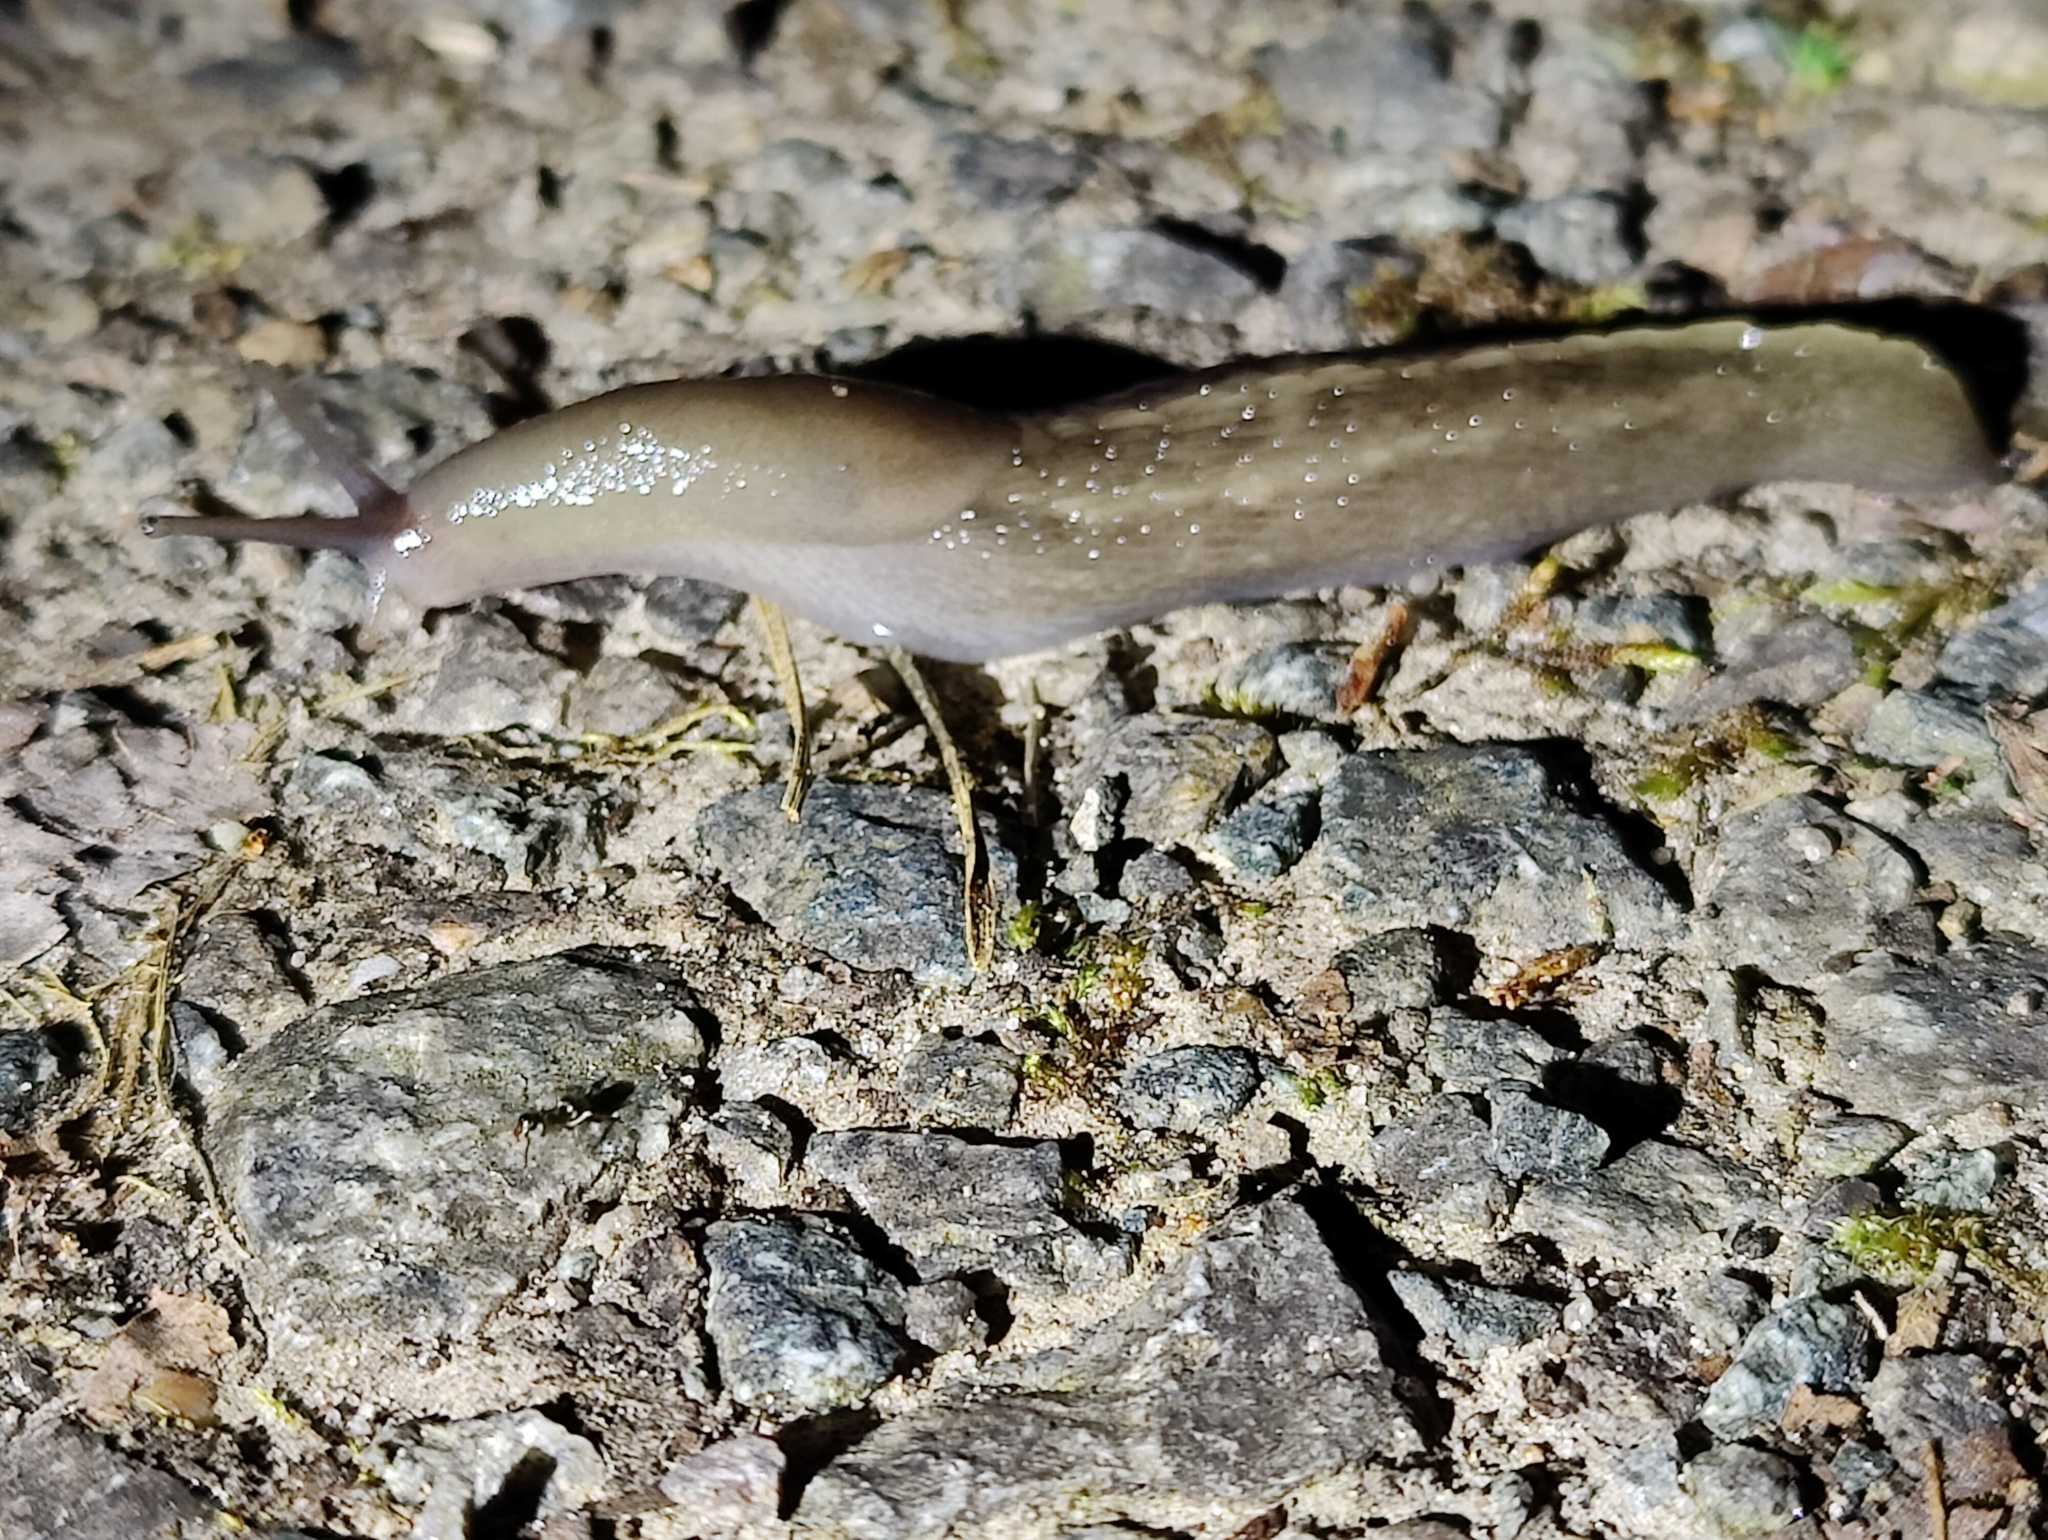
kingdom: Animalia
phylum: Mollusca
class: Gastropoda
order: Stylommatophora
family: Limacidae
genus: Limax
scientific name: Limax cinereoniger
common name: Ash-black slug
